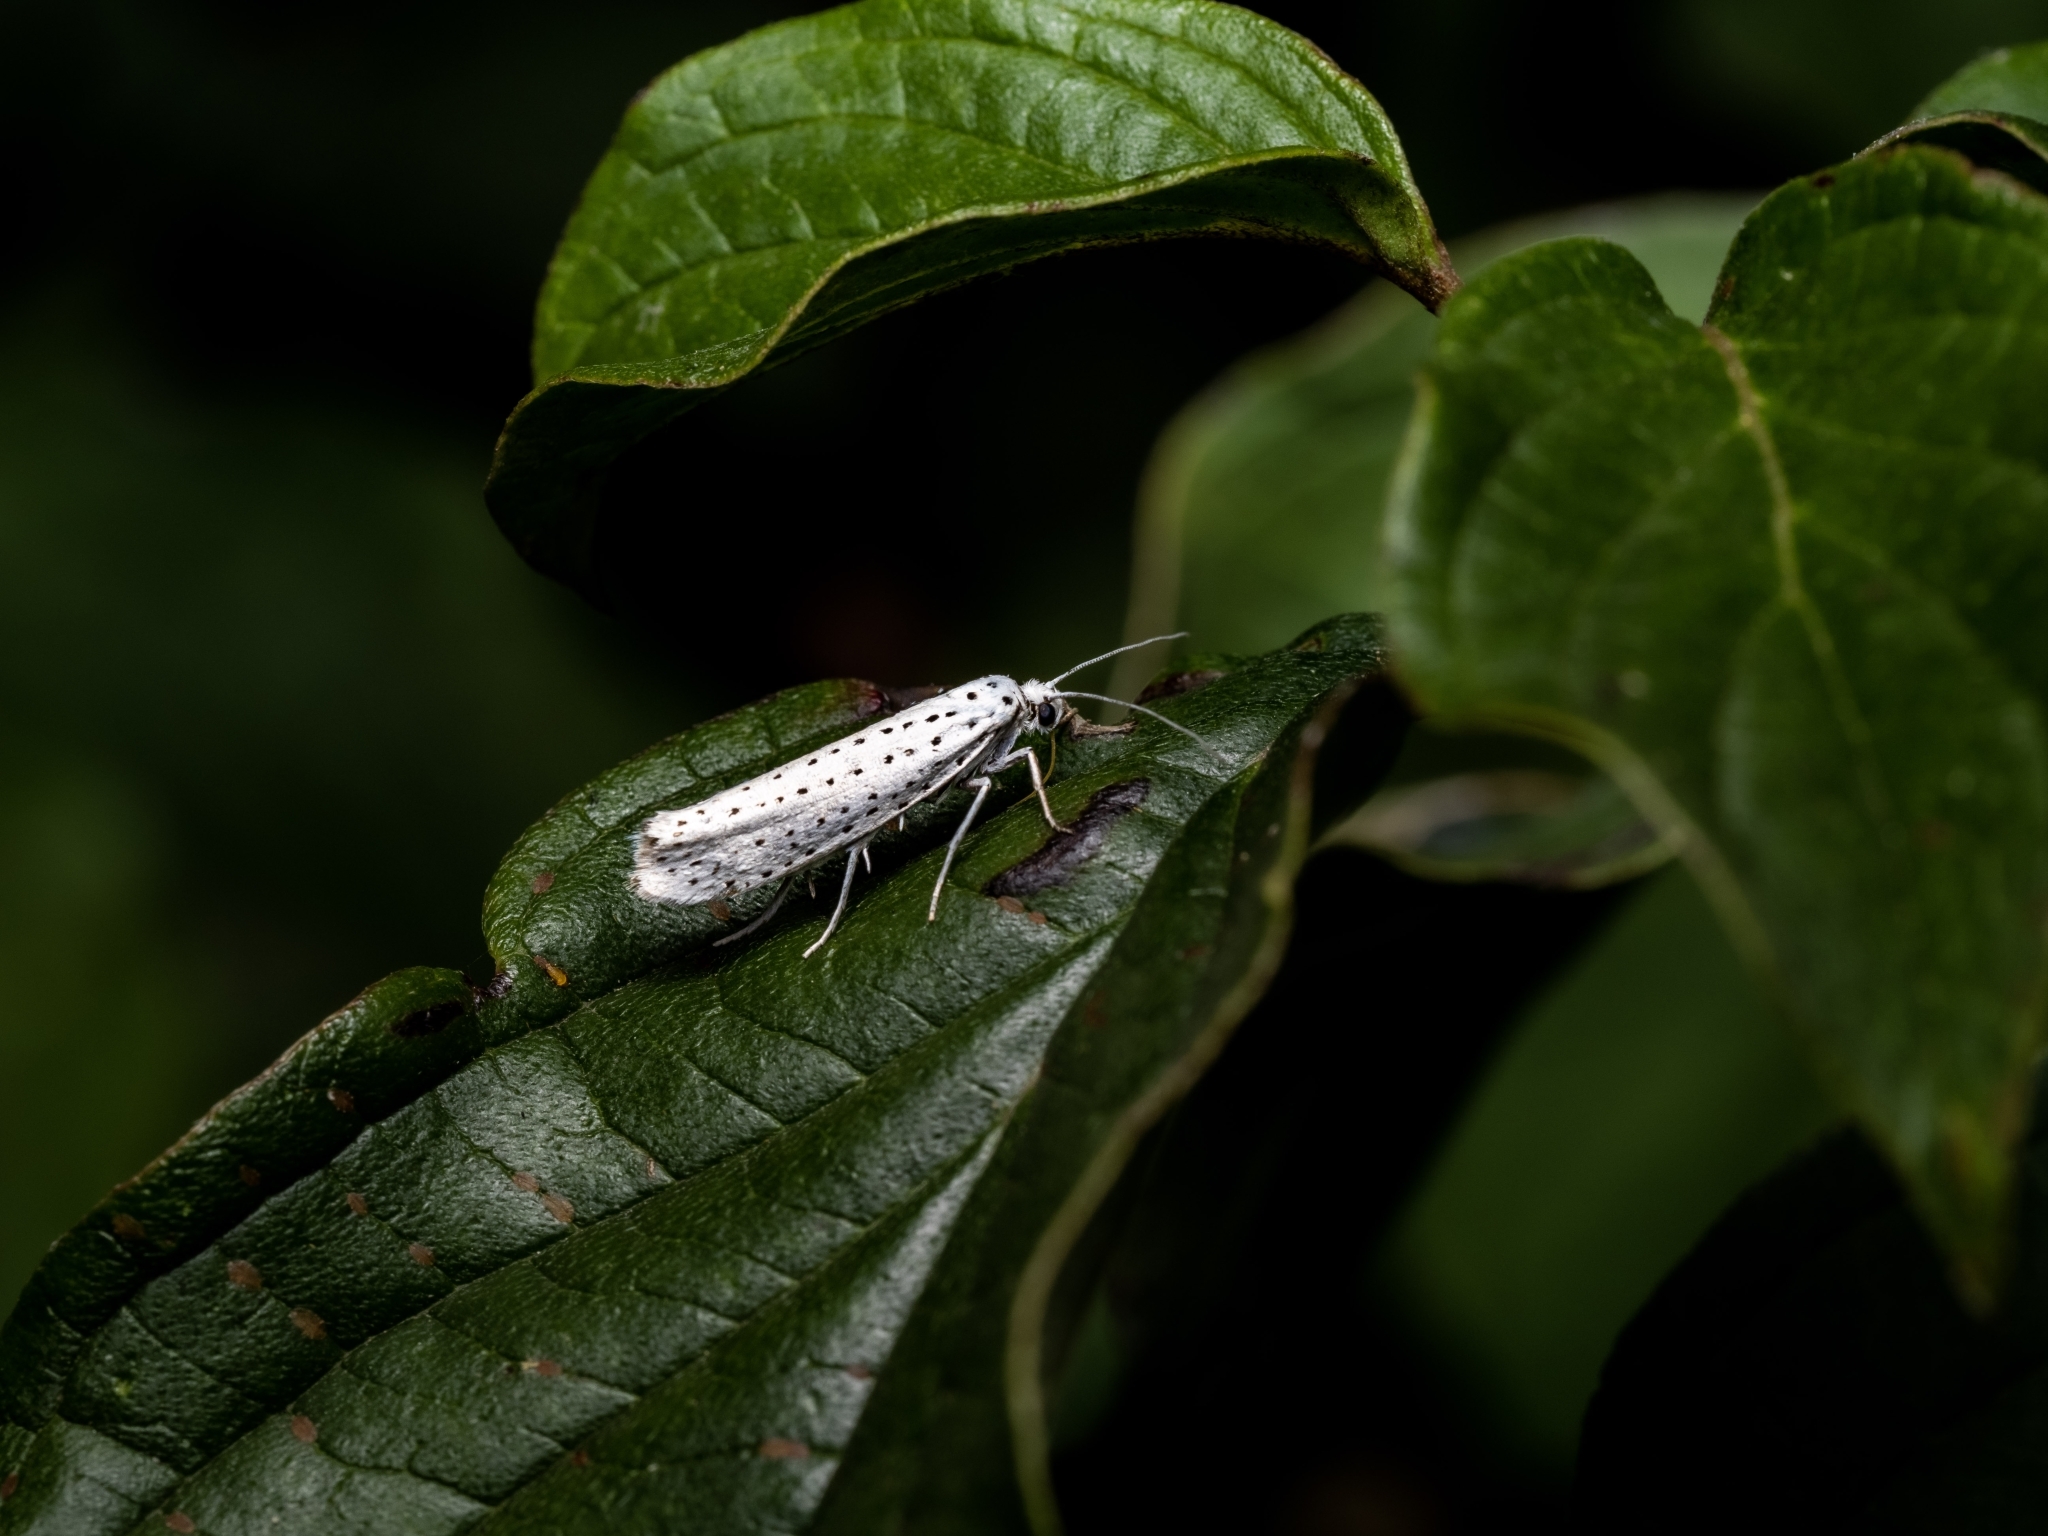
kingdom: Animalia
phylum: Arthropoda
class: Insecta
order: Lepidoptera
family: Yponomeutidae
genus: Yponomeuta
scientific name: Yponomeuta evonymella
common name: Bird-cherry ermine
